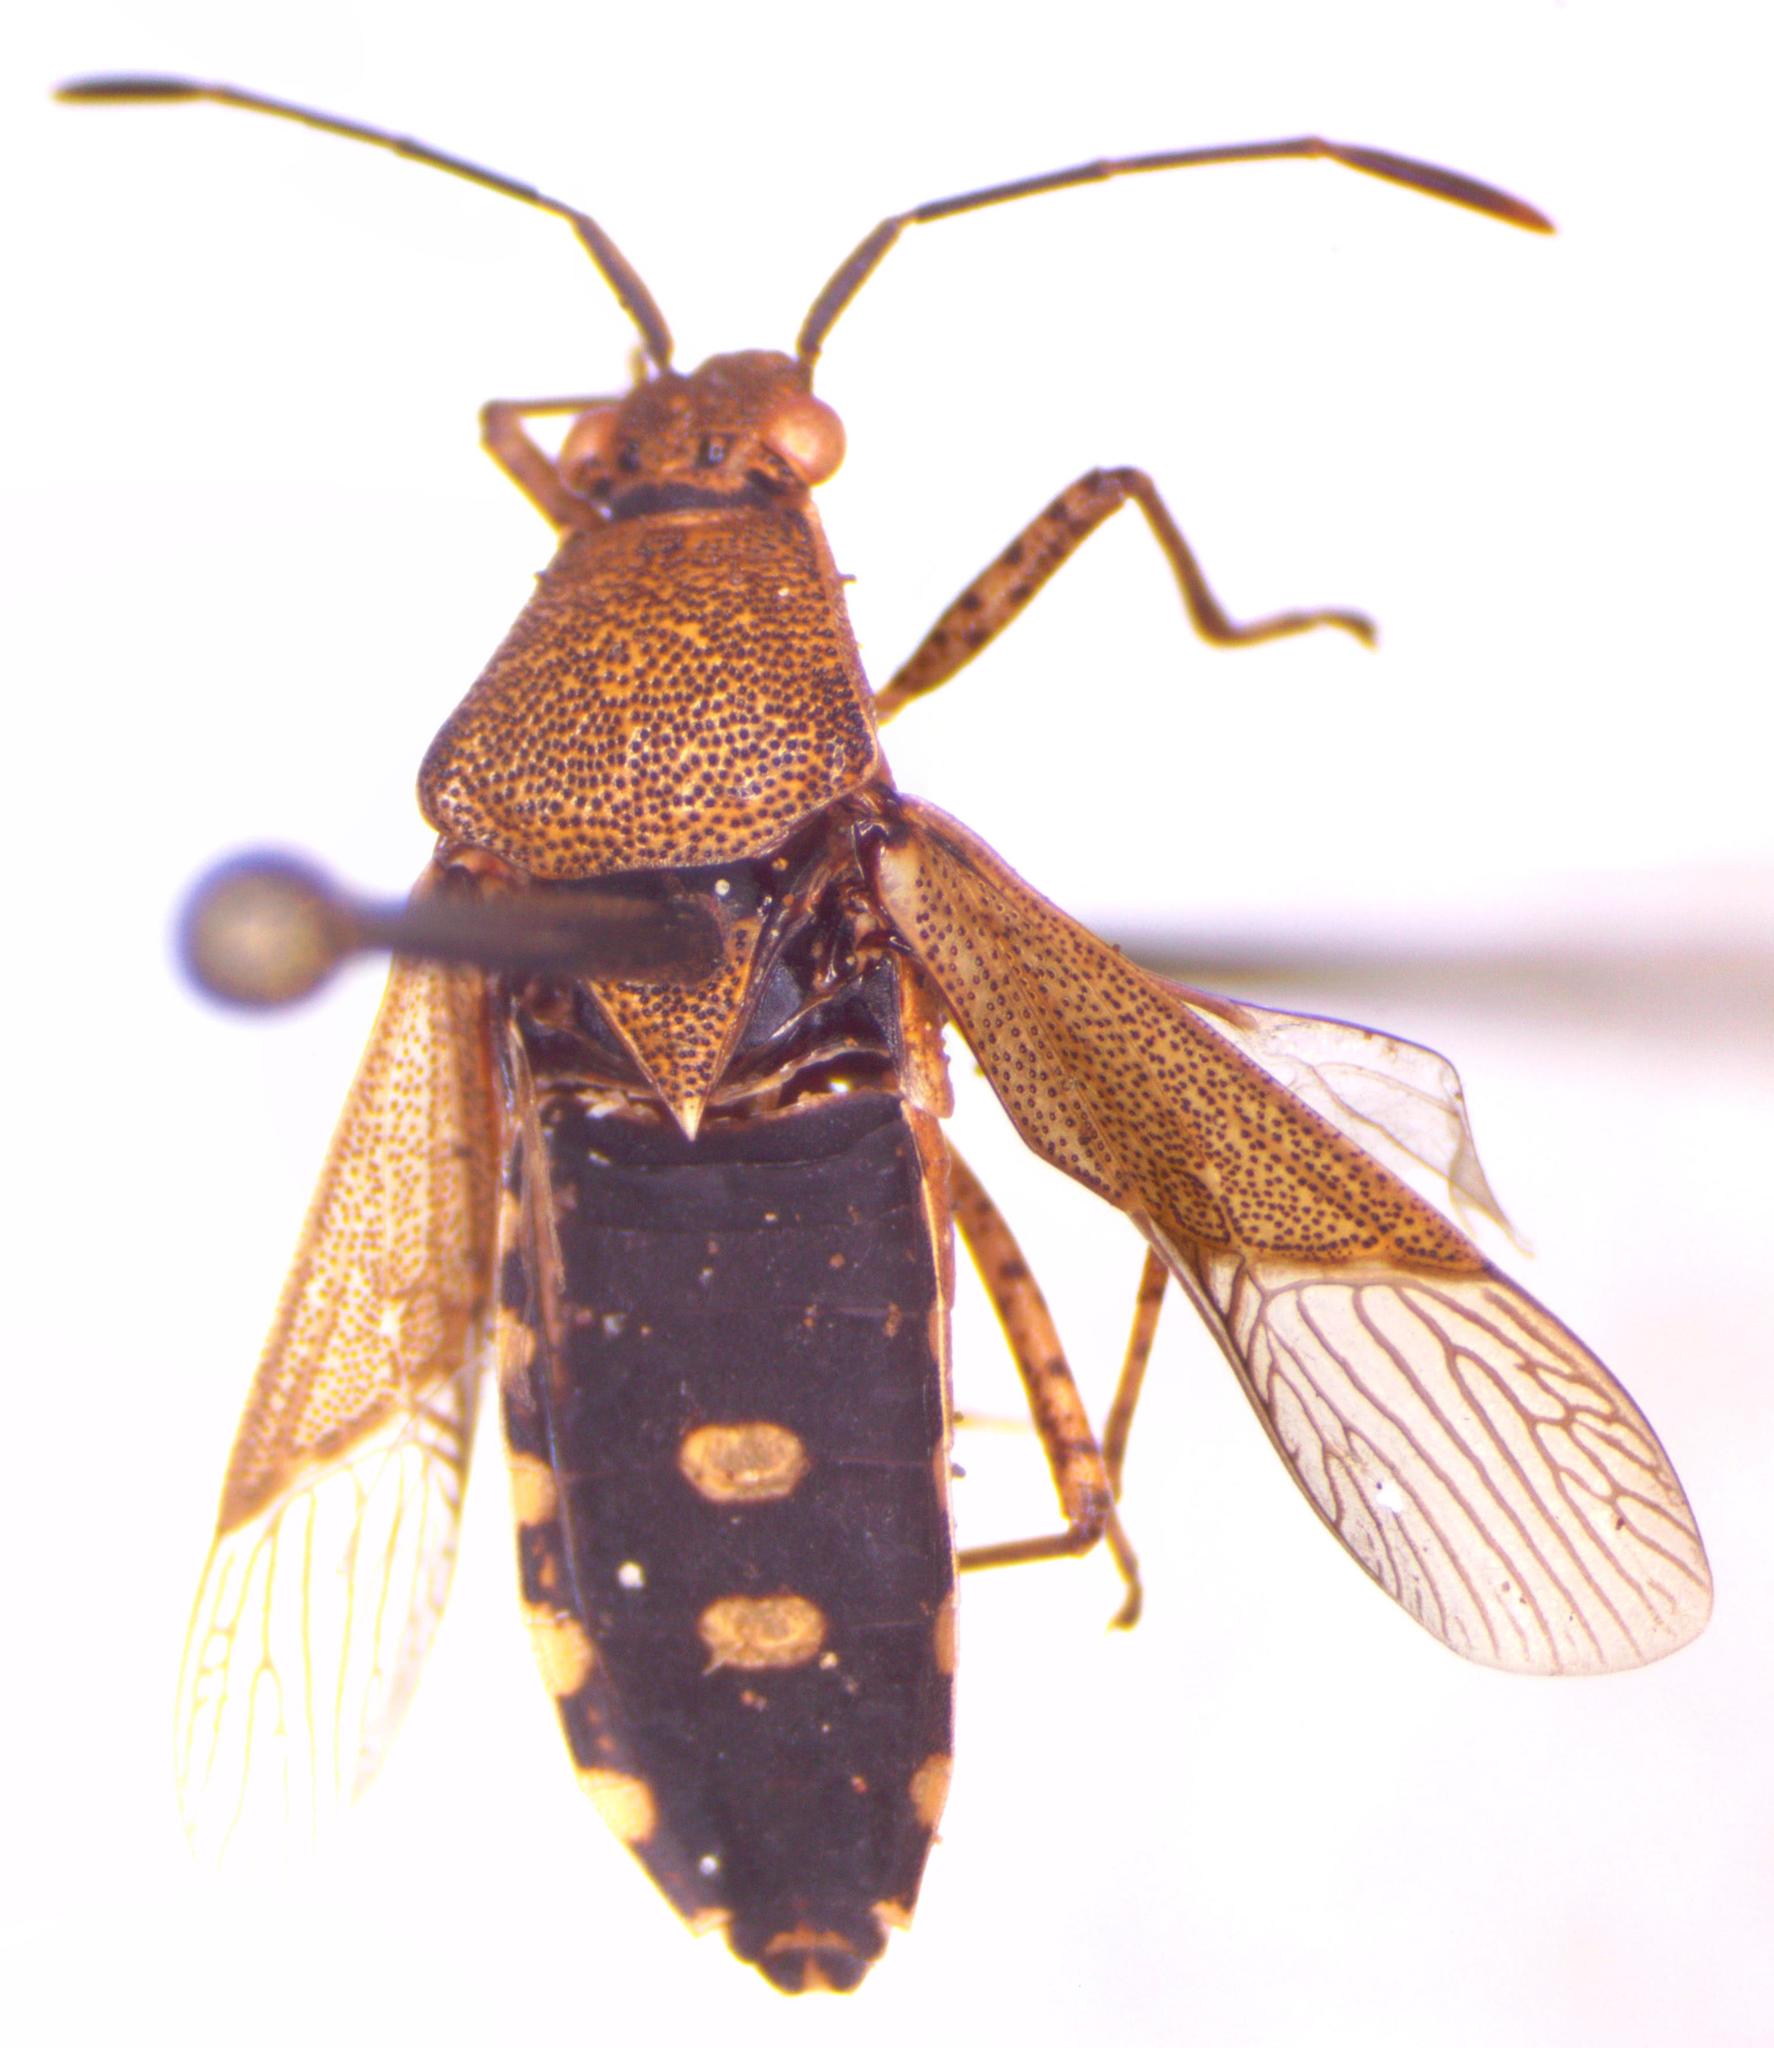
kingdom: Animalia
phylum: Arthropoda
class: Insecta
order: Hemiptera
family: Coreidae
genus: Catorhintha
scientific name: Catorhintha guttula
